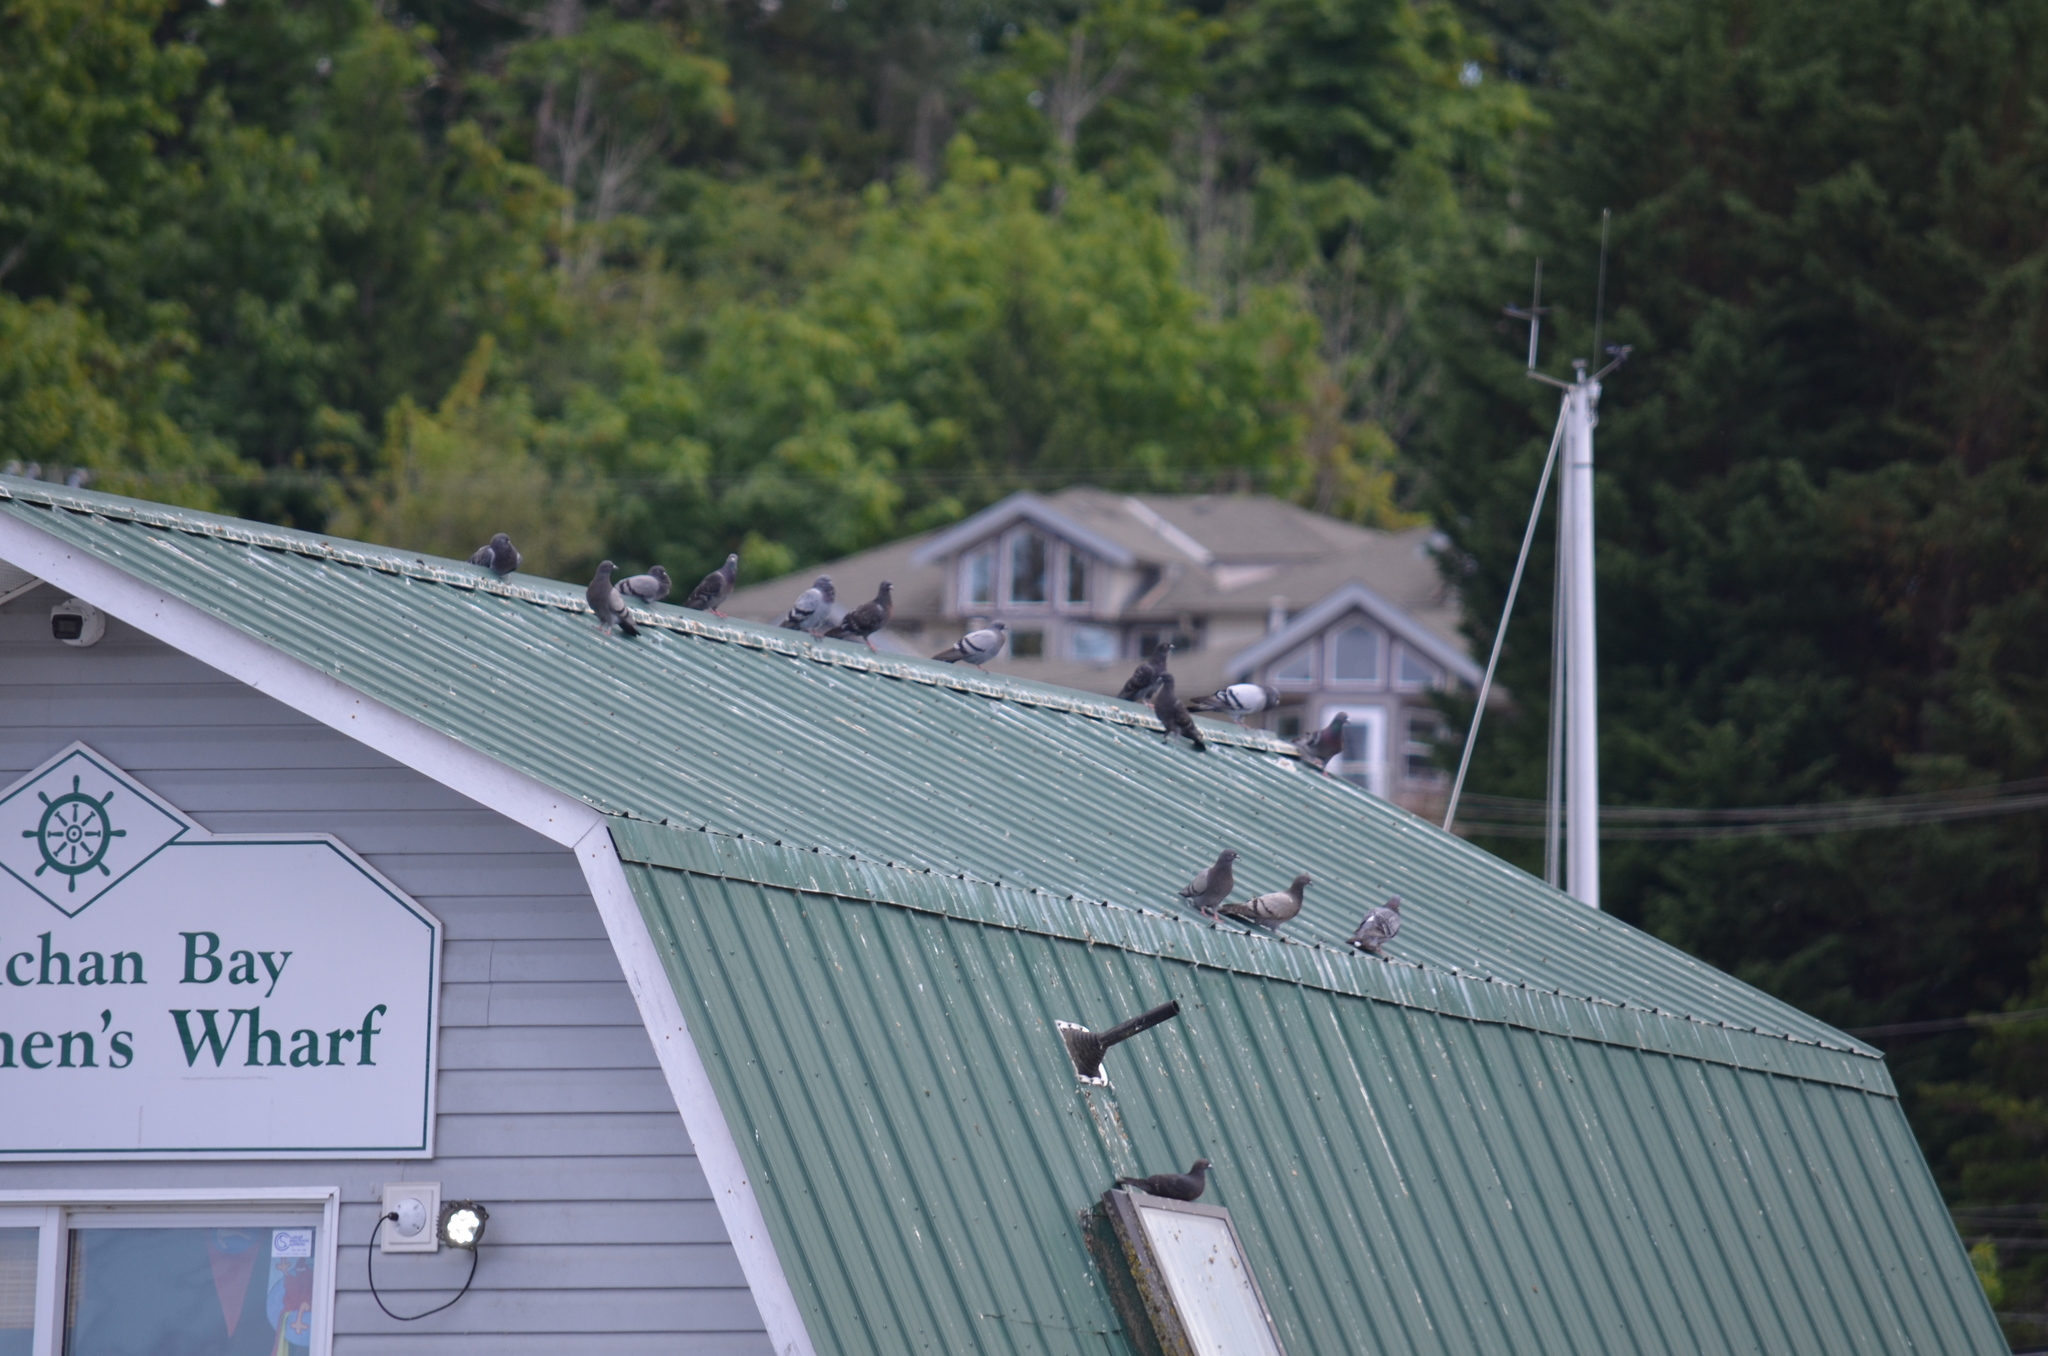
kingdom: Animalia
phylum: Chordata
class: Aves
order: Columbiformes
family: Columbidae
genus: Columba
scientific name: Columba livia
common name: Rock pigeon
